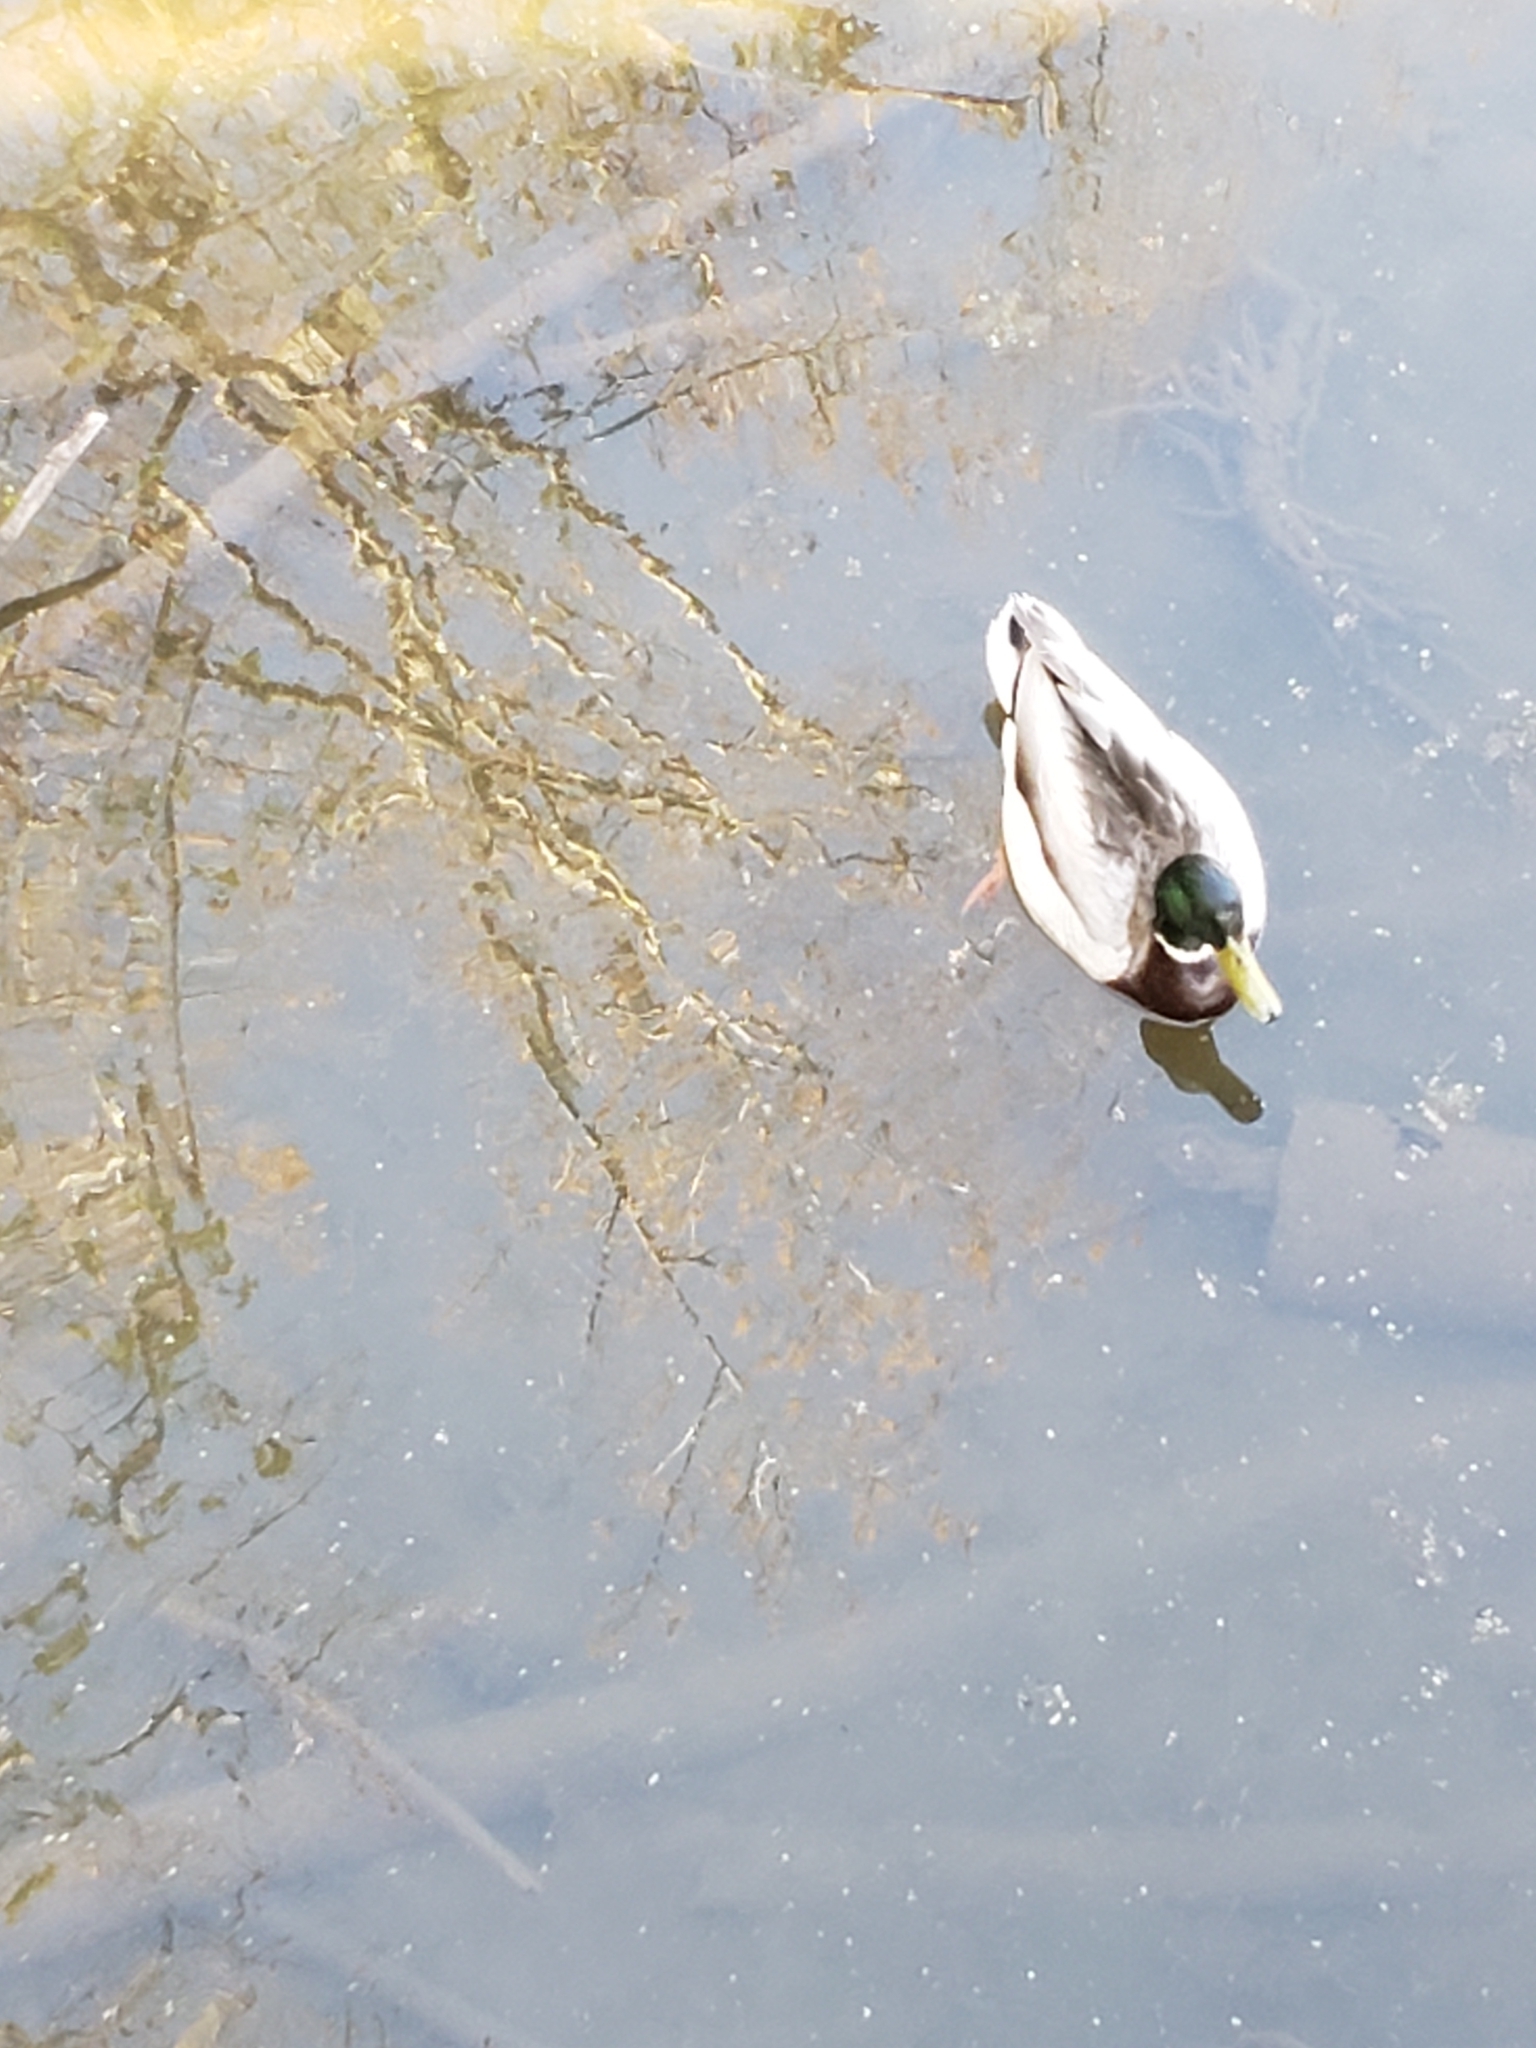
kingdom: Animalia
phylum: Chordata
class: Aves
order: Anseriformes
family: Anatidae
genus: Anas
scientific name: Anas platyrhynchos
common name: Mallard
